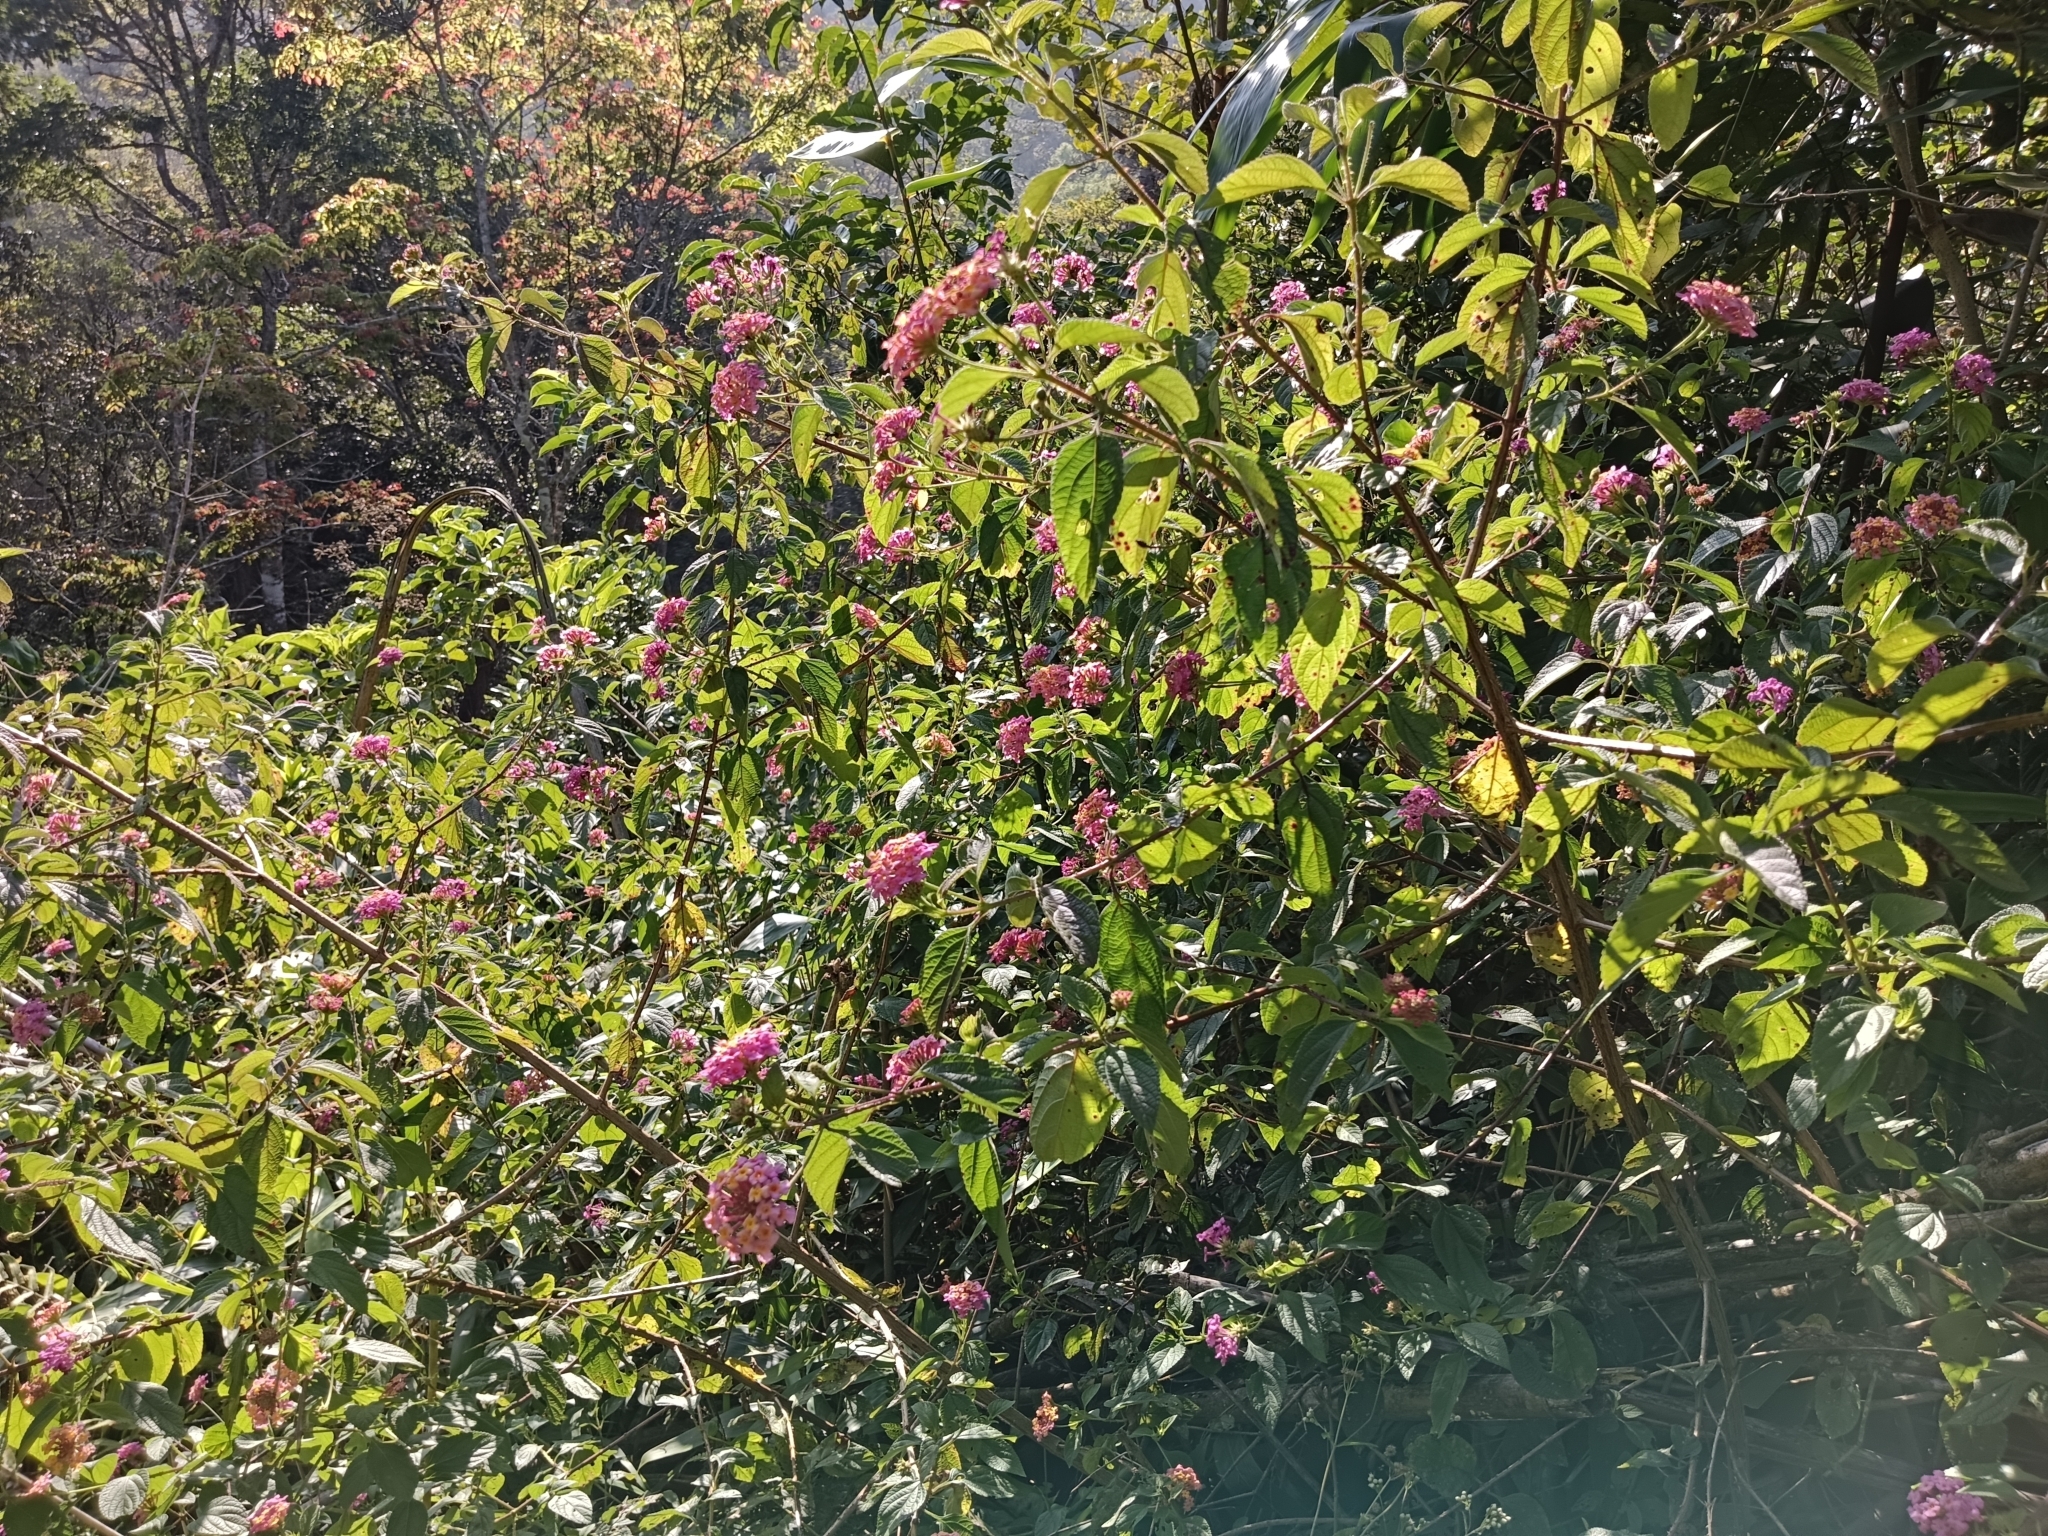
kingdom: Plantae
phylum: Tracheophyta
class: Magnoliopsida
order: Lamiales
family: Verbenaceae
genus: Lantana
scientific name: Lantana camara
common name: Lantana
